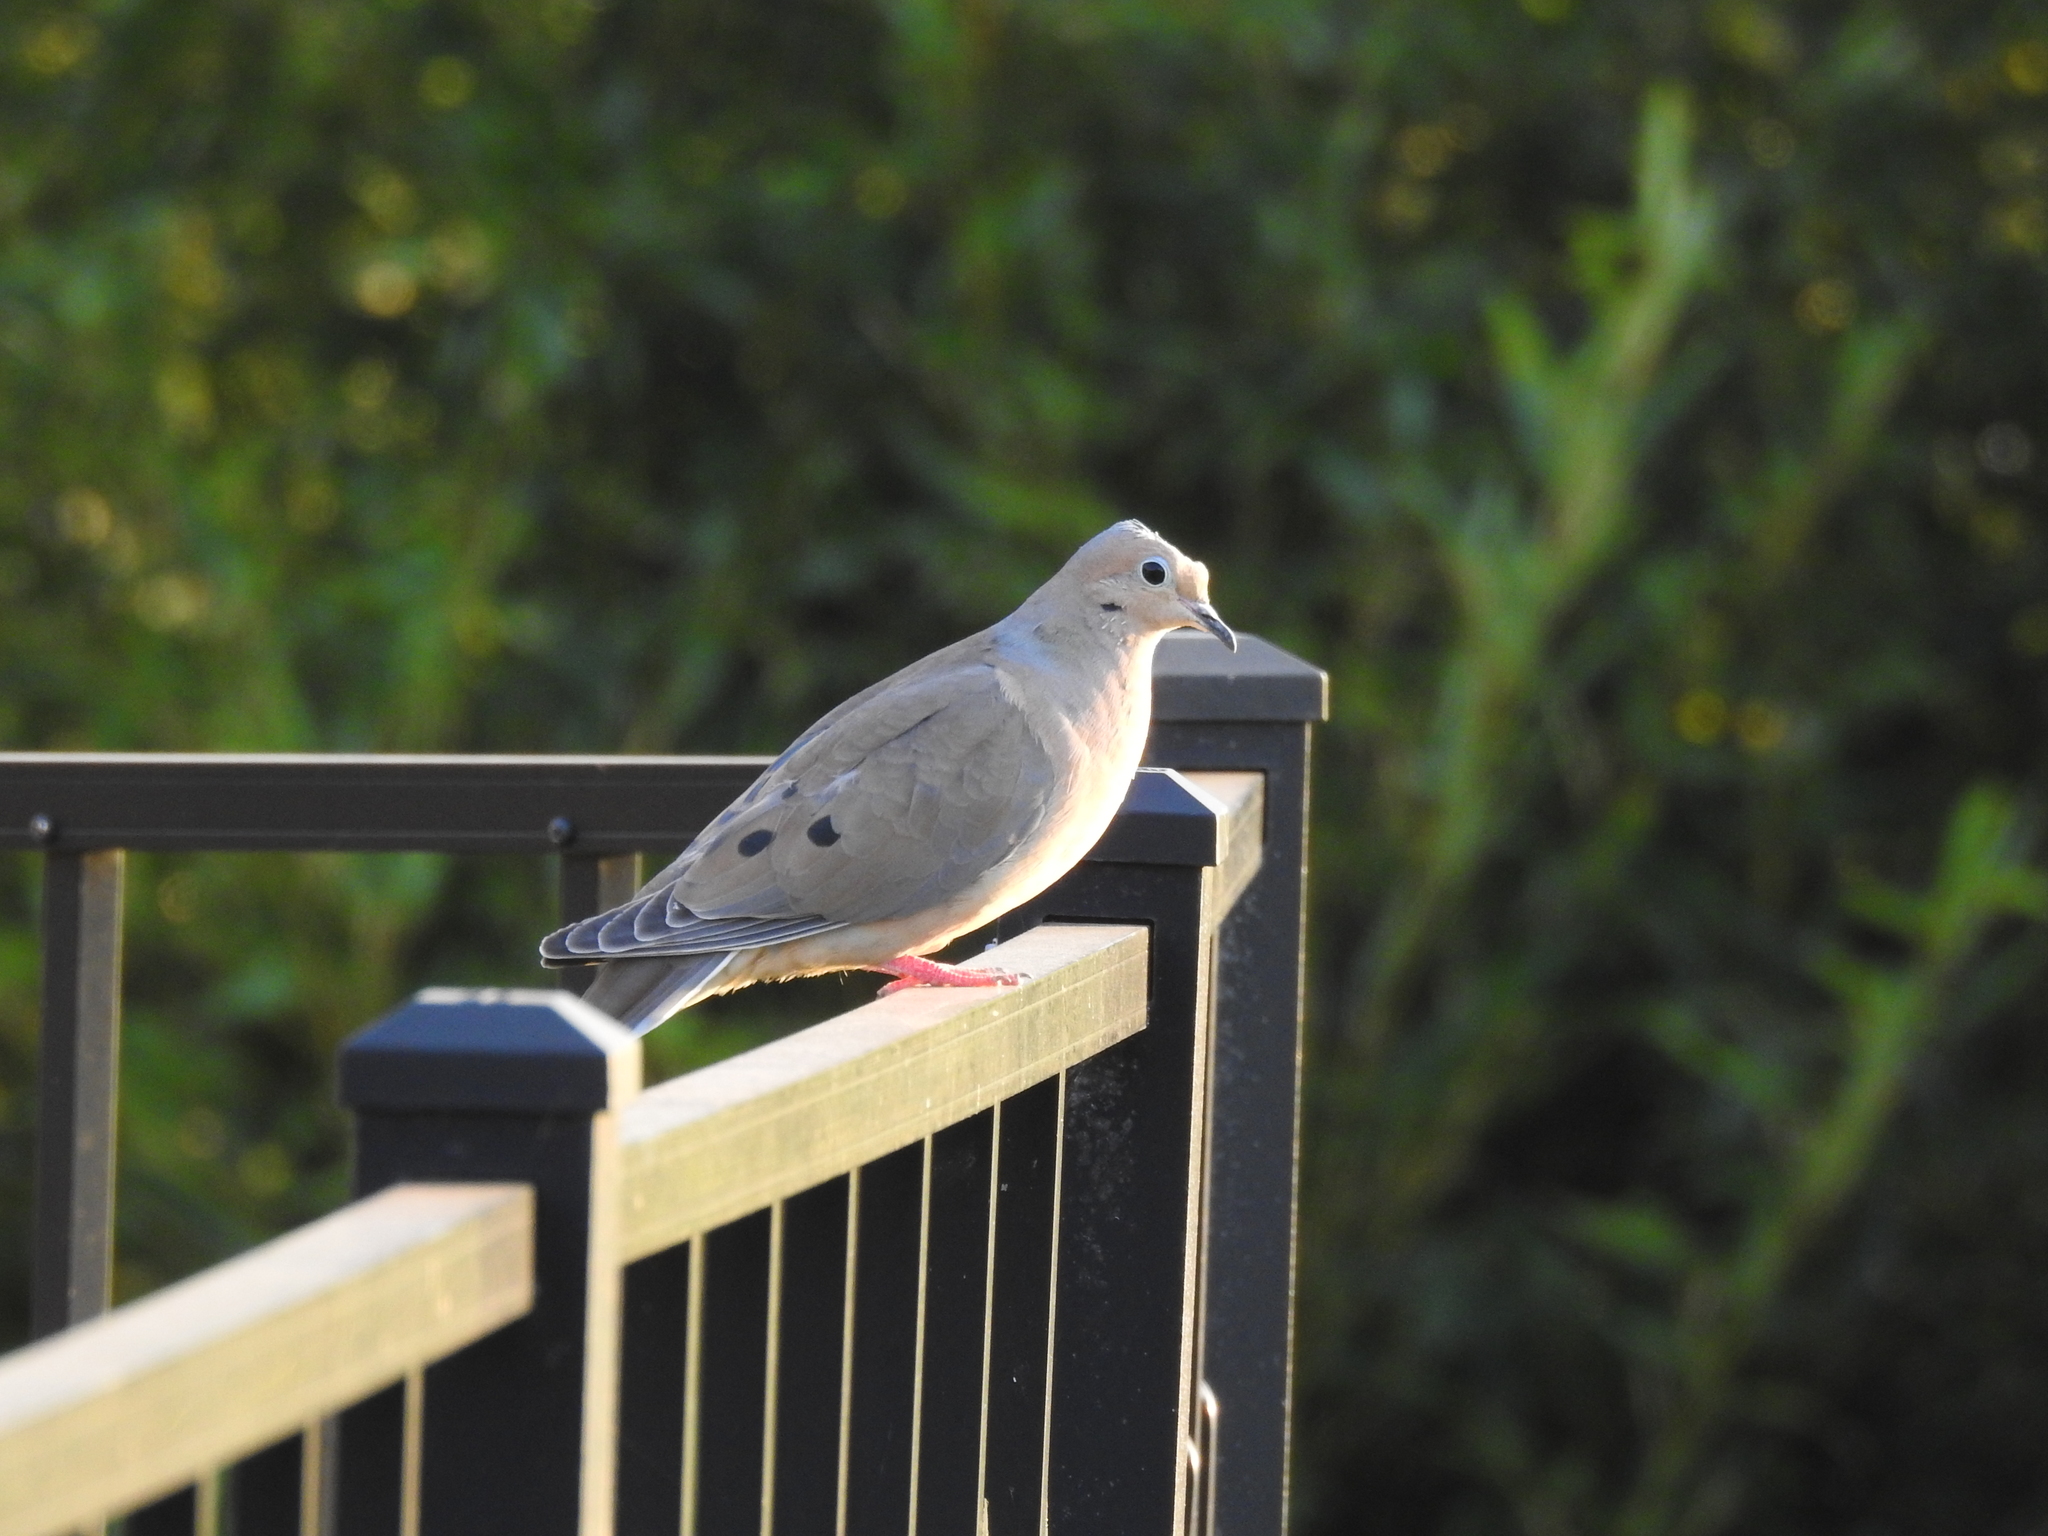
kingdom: Animalia
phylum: Chordata
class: Aves
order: Columbiformes
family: Columbidae
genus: Zenaida
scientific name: Zenaida macroura
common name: Mourning dove
